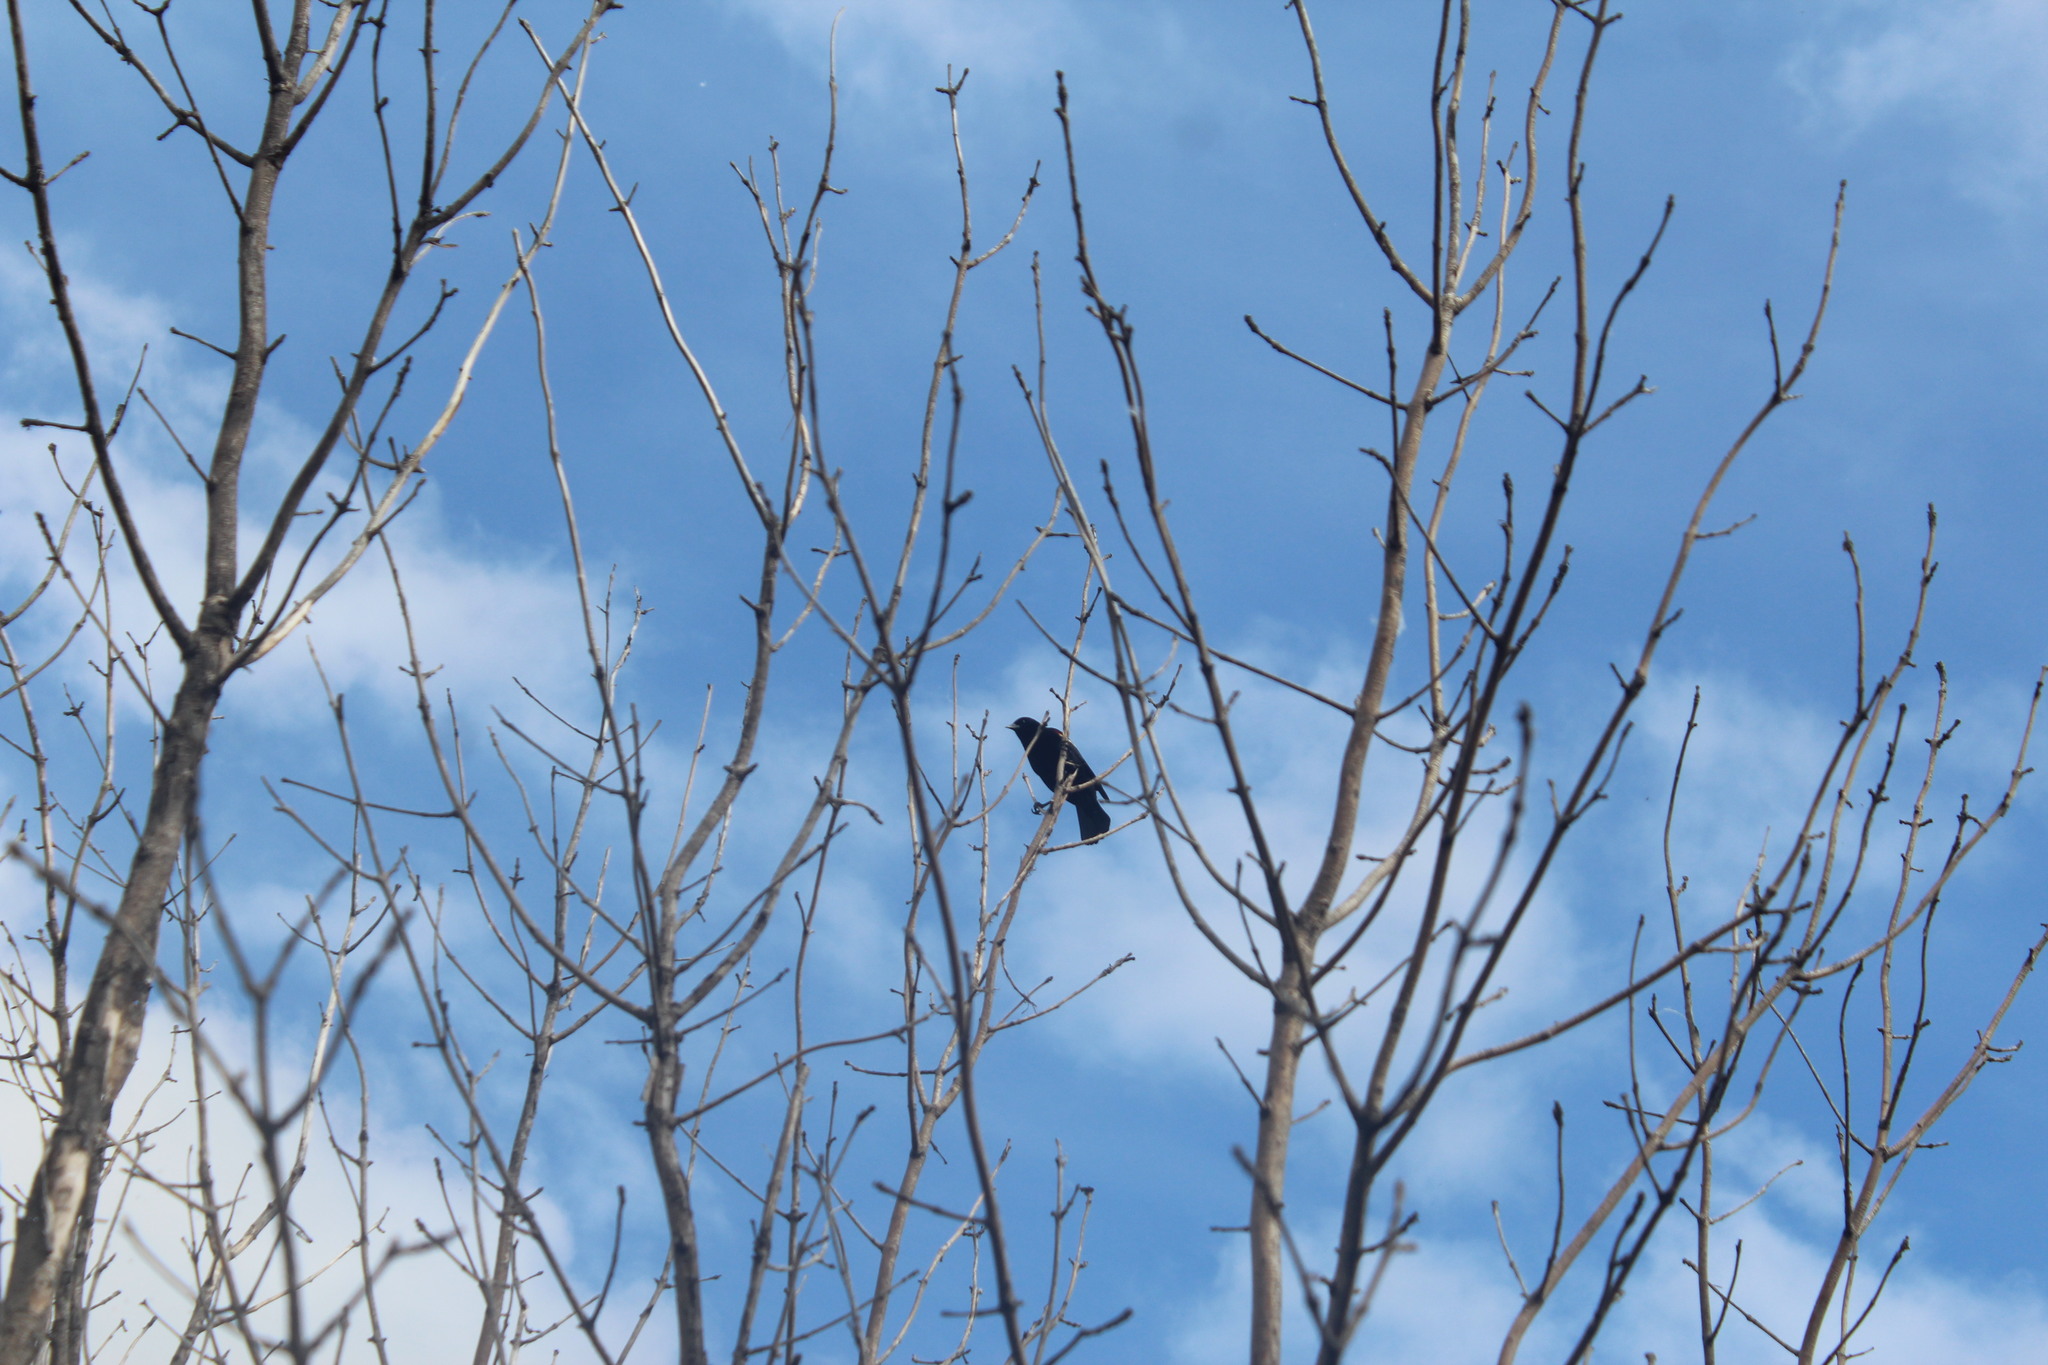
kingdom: Animalia
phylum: Chordata
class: Aves
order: Passeriformes
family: Icteridae
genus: Agelaius
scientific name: Agelaius phoeniceus
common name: Red-winged blackbird
